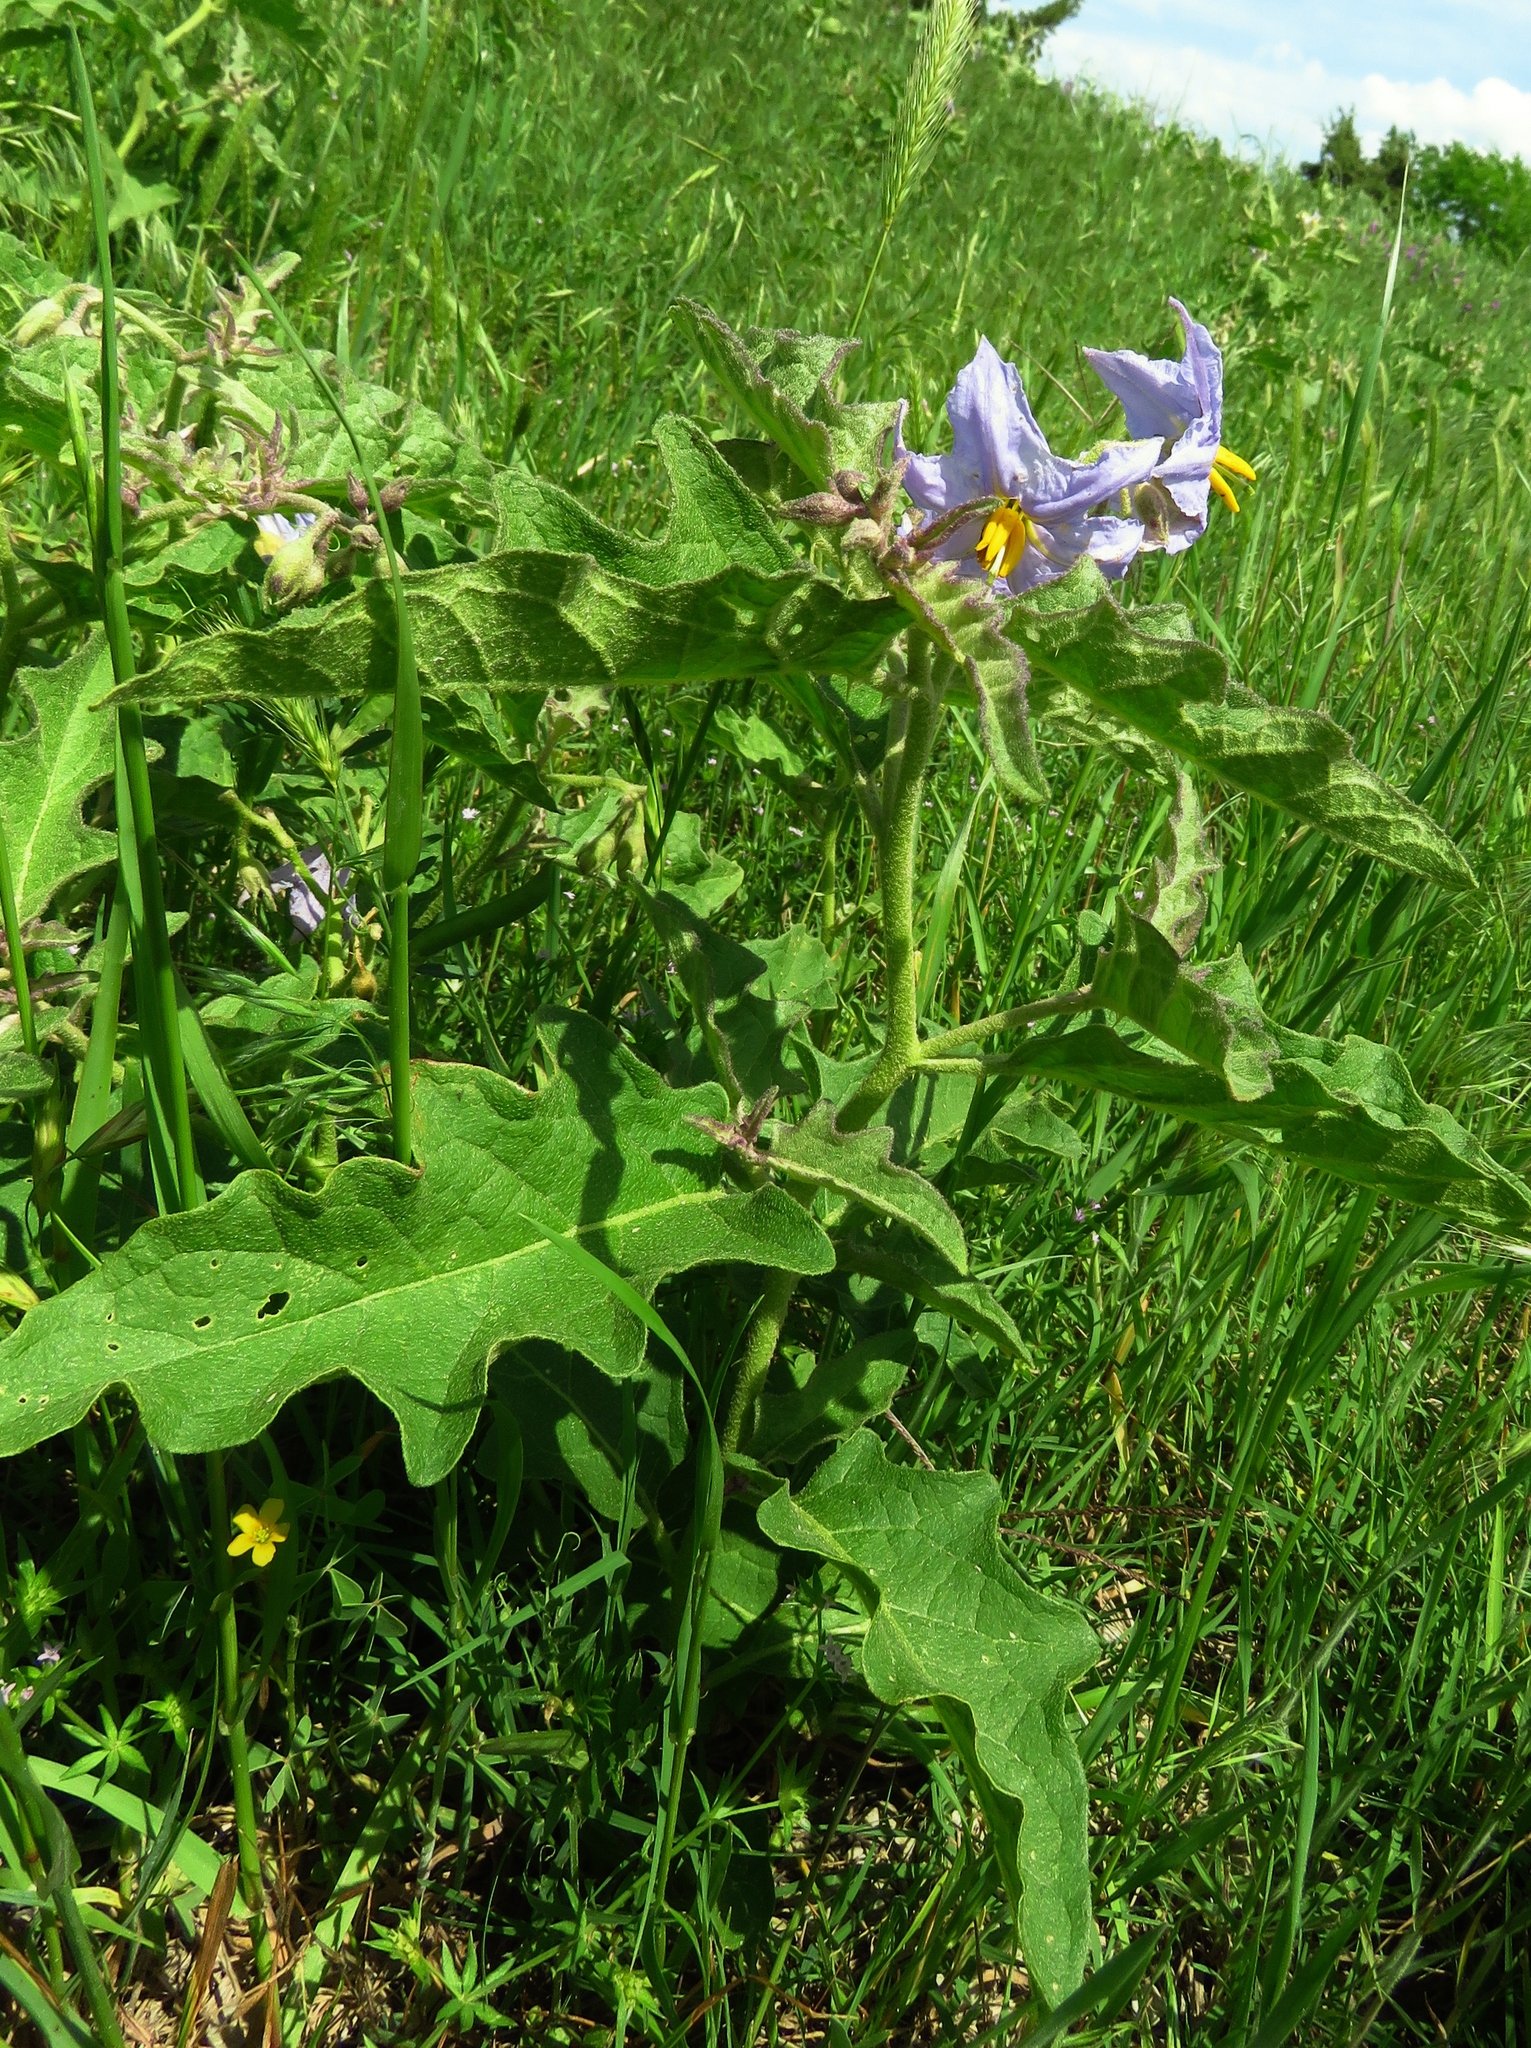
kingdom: Plantae
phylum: Tracheophyta
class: Magnoliopsida
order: Solanales
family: Solanaceae
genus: Solanum
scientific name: Solanum dimidiatum
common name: Carolina horse-nettle
